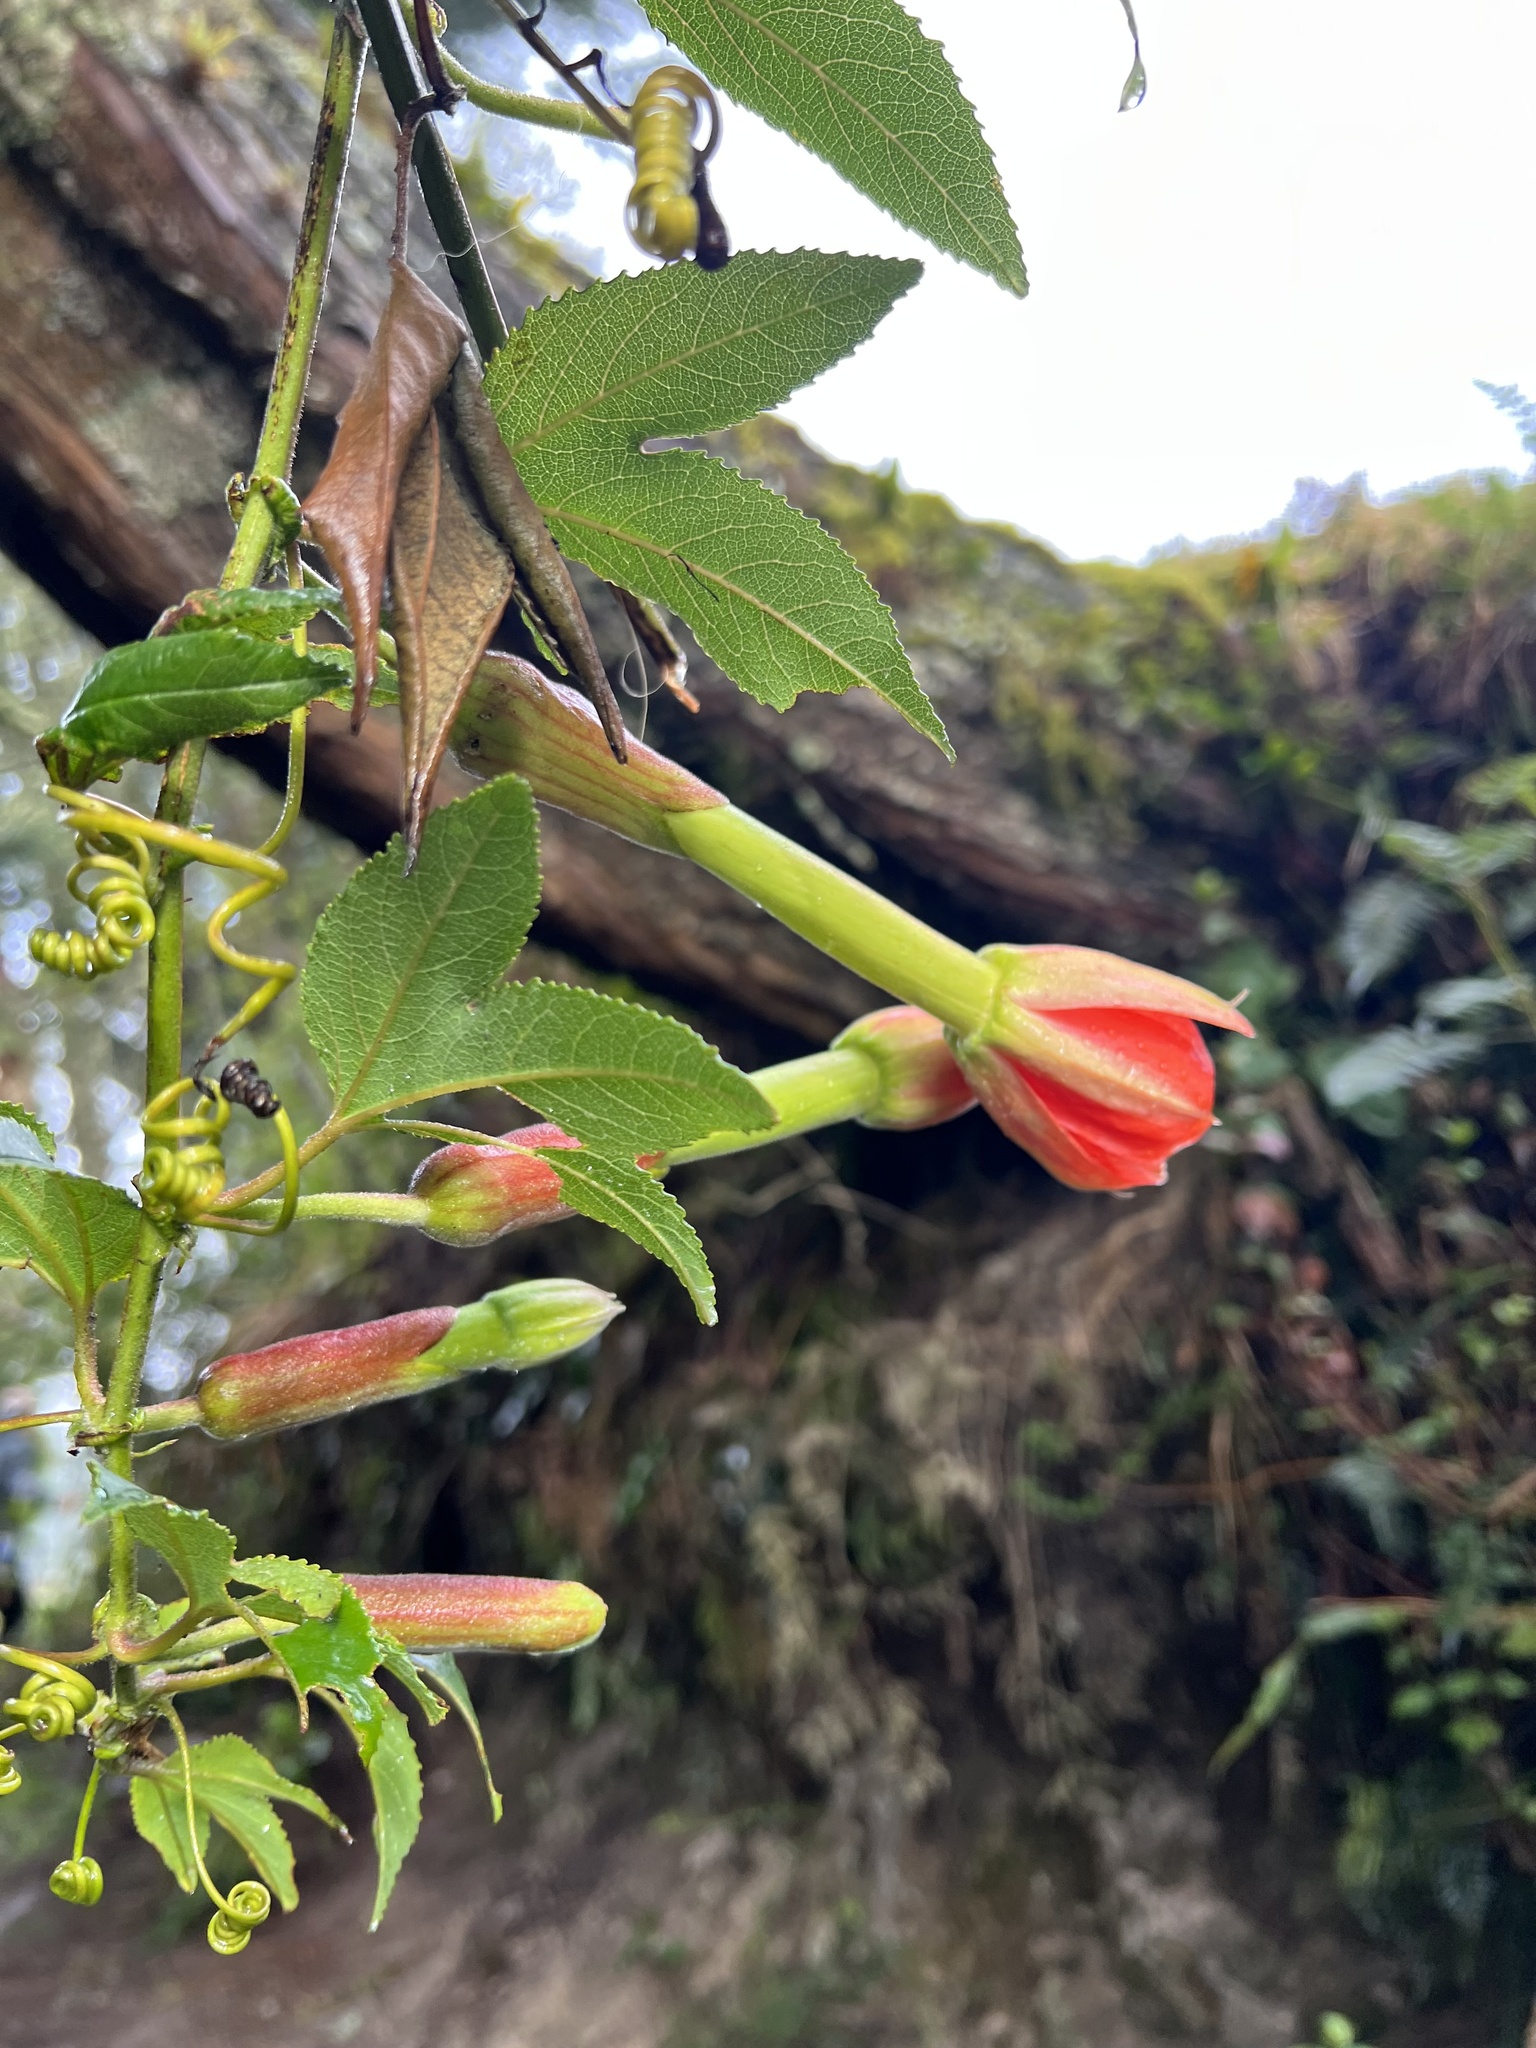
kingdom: Plantae
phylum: Tracheophyta
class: Magnoliopsida
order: Malpighiales
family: Passifloraceae
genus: Passiflora
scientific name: Passiflora mixta
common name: Passion flower
